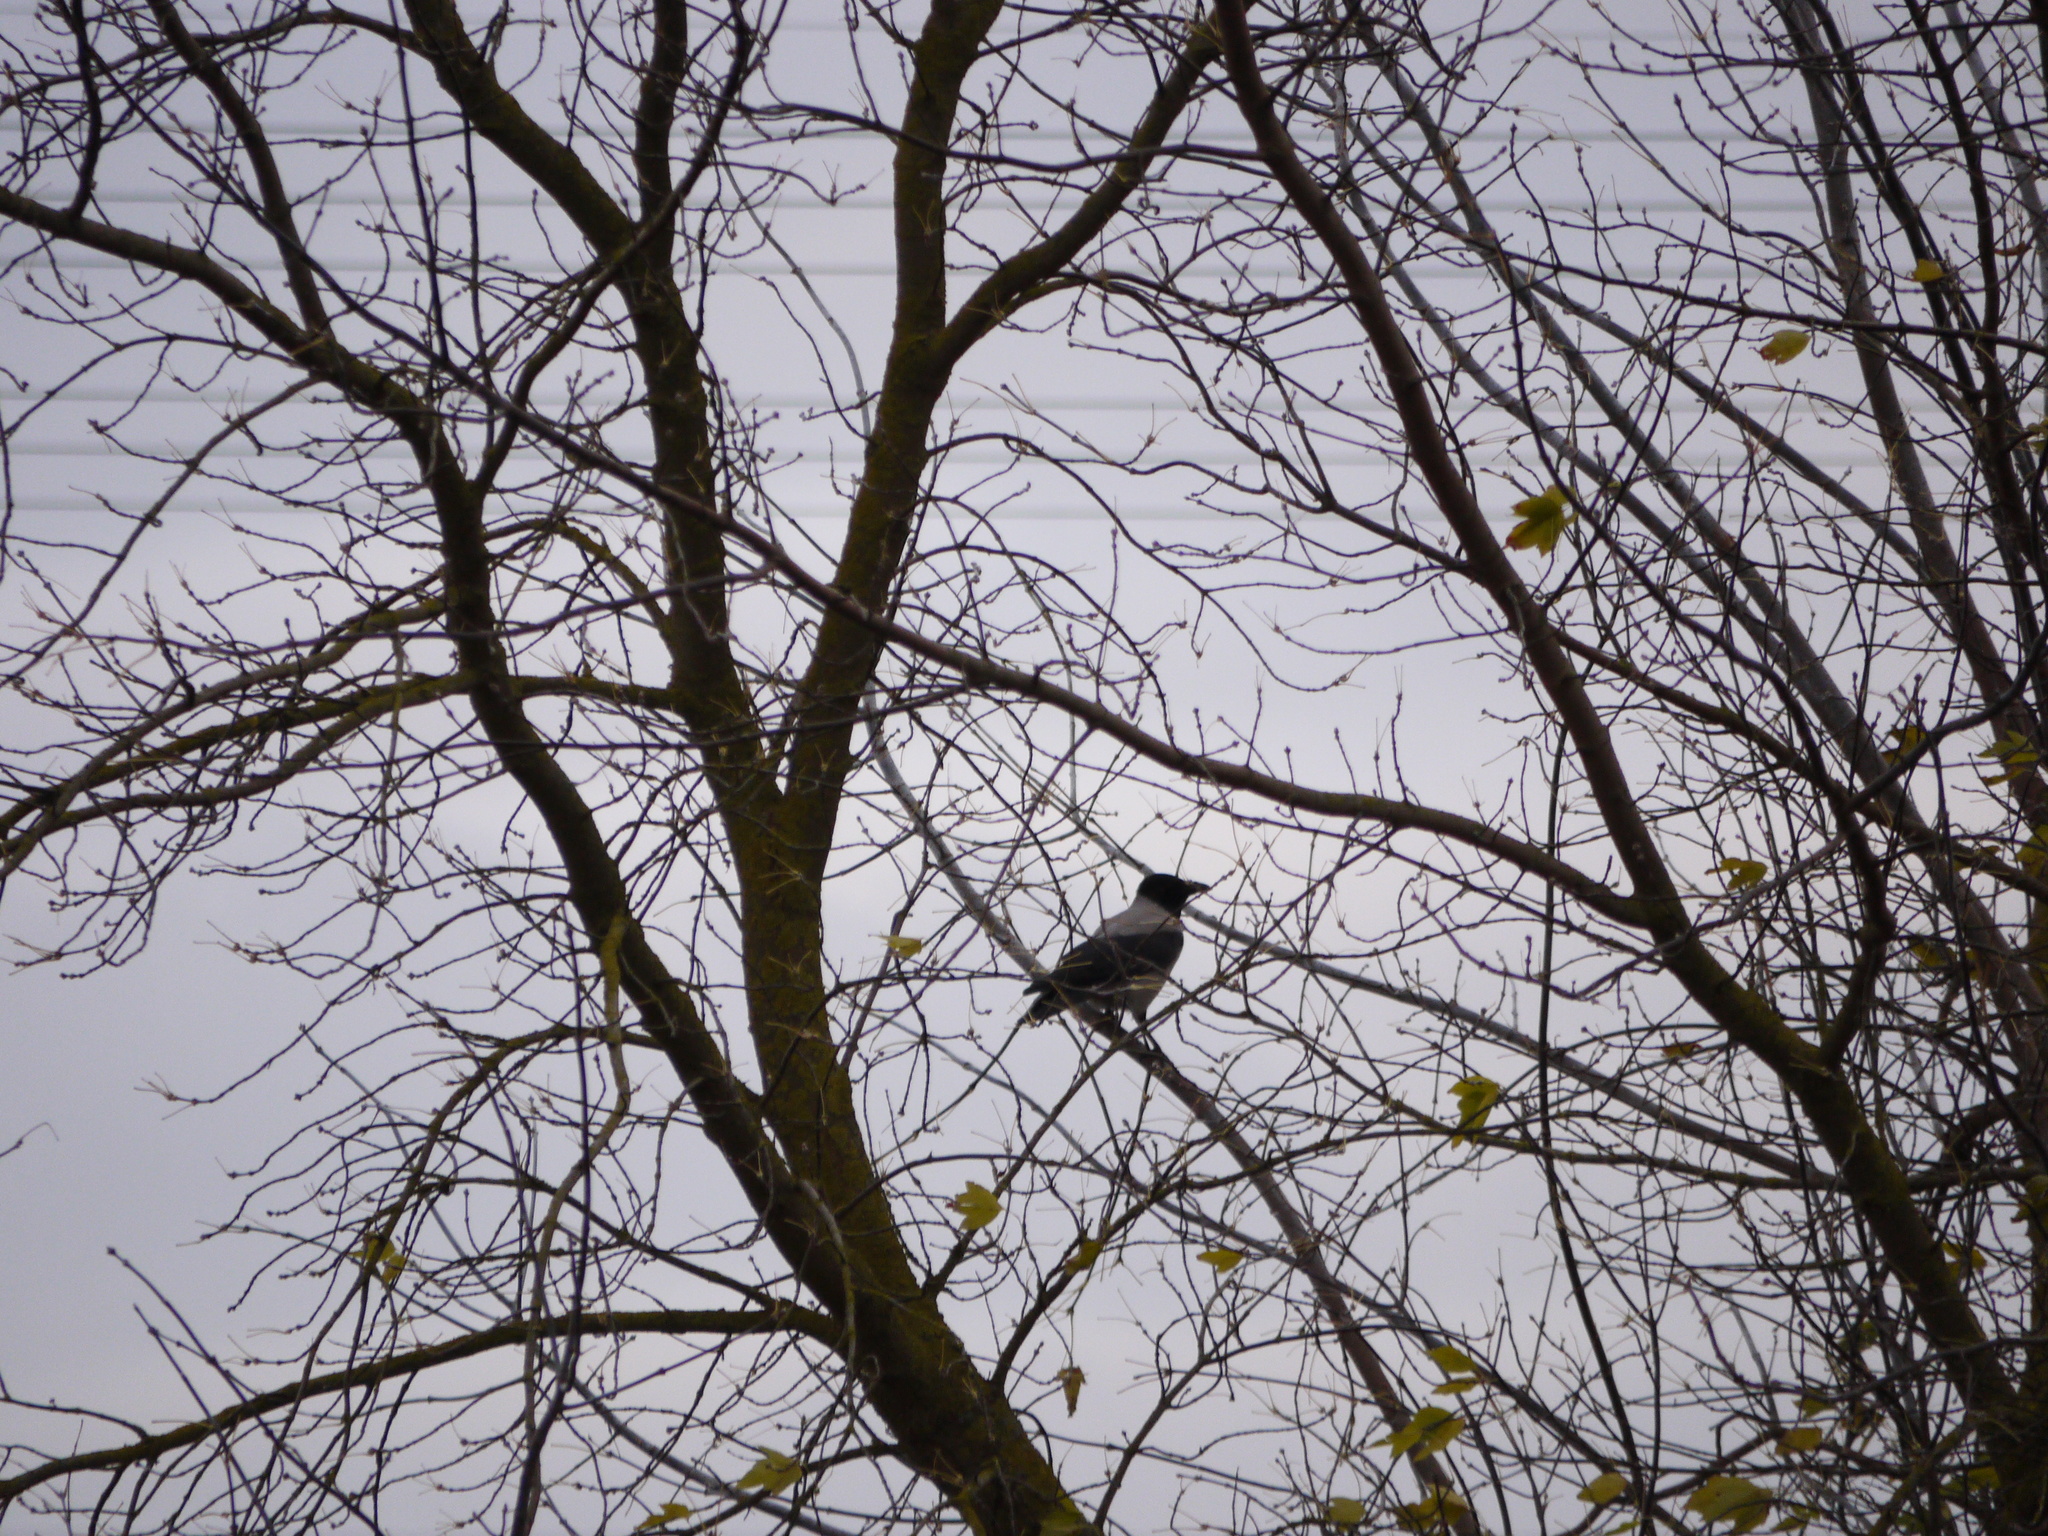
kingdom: Animalia
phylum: Chordata
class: Aves
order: Passeriformes
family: Corvidae
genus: Corvus
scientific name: Corvus cornix
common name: Hooded crow
